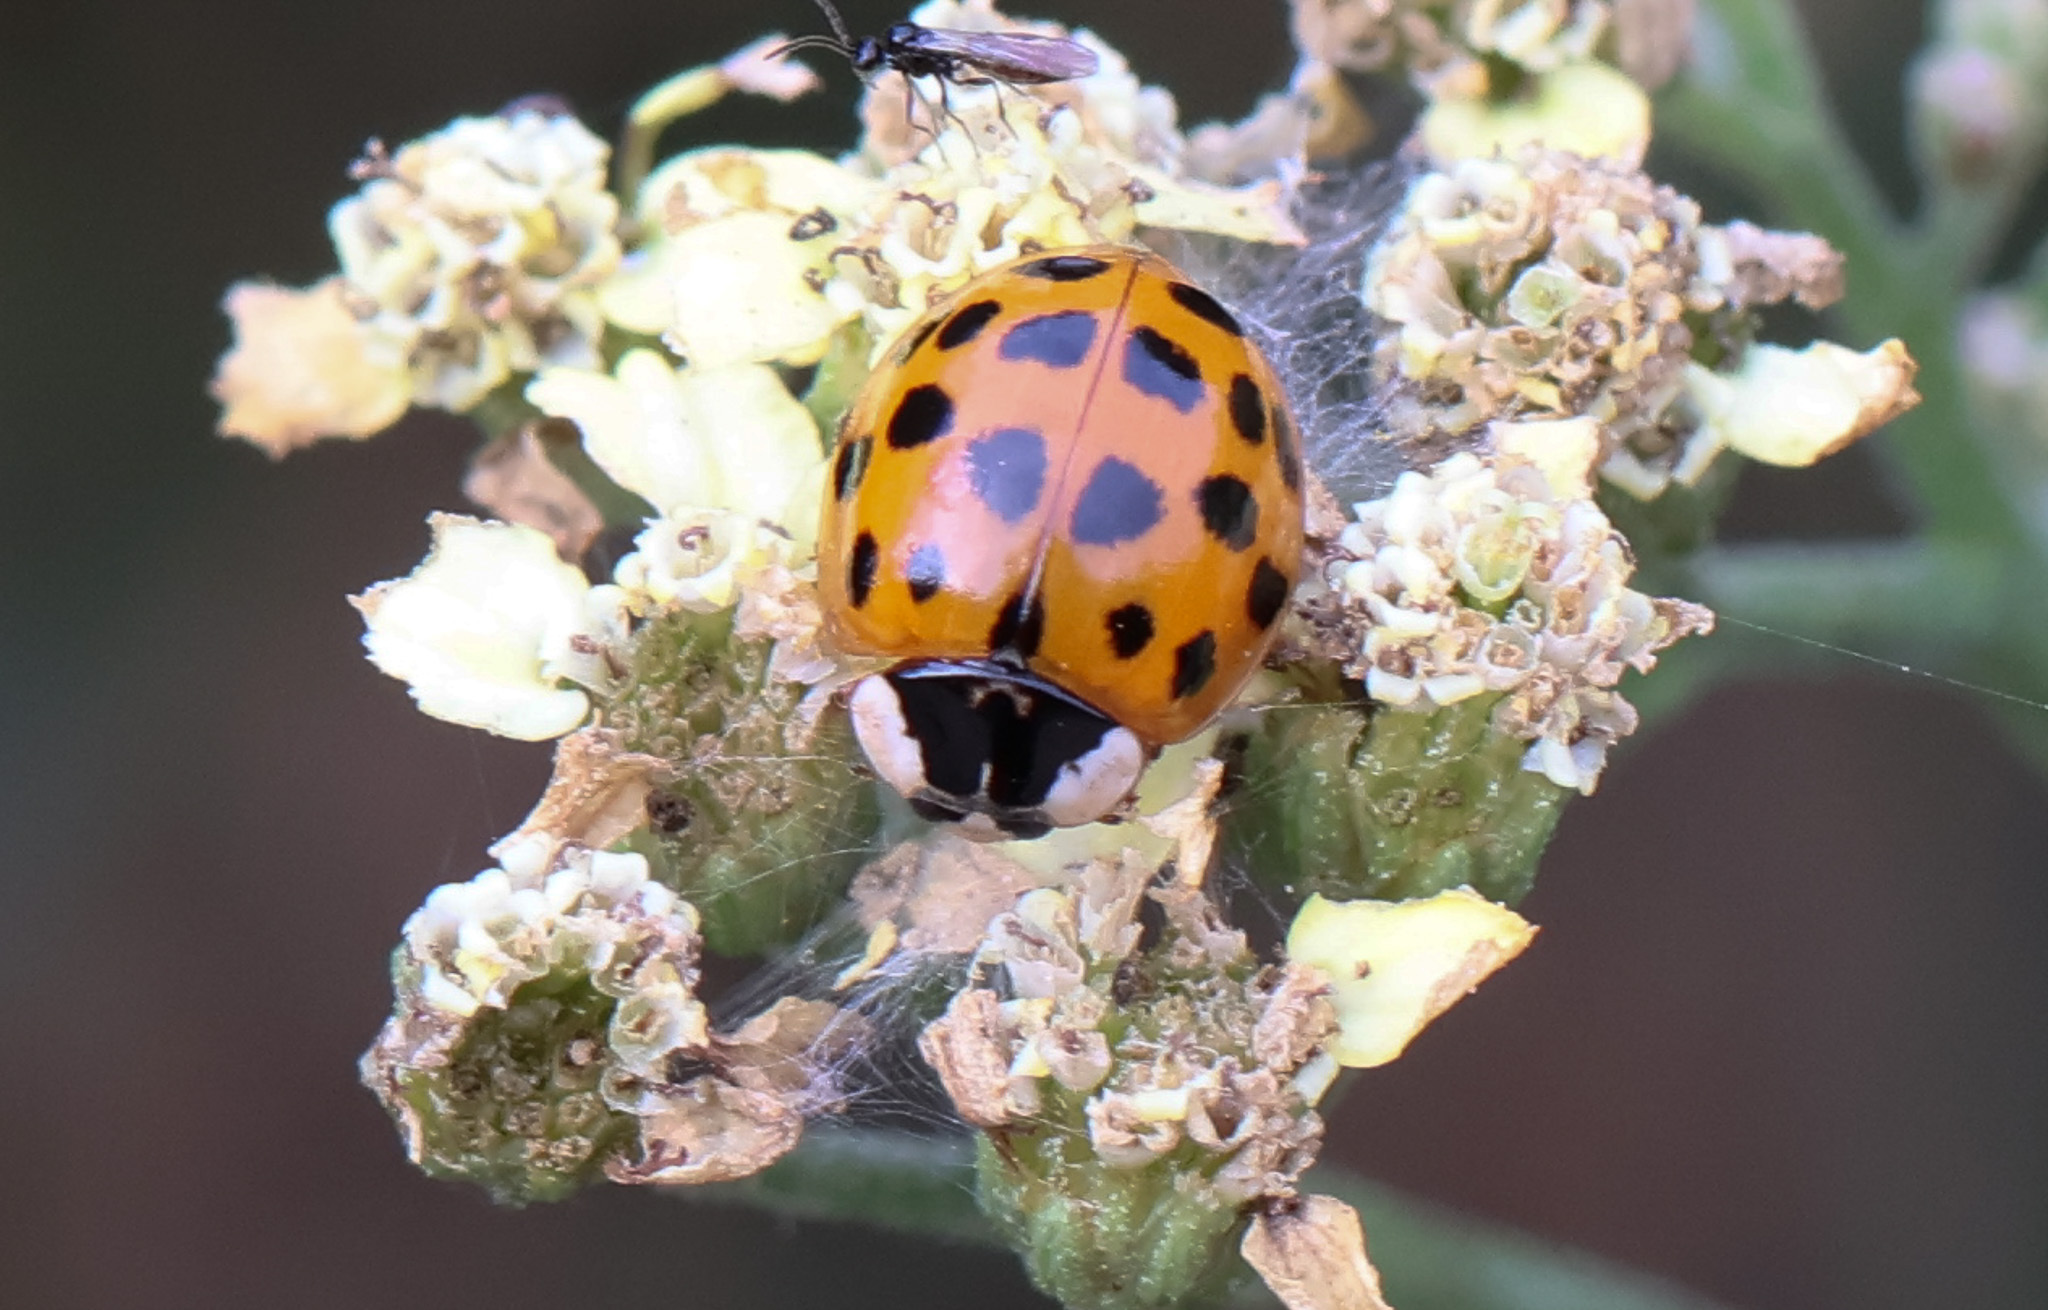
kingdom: Animalia
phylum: Arthropoda
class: Insecta
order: Coleoptera
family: Coccinellidae
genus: Harmonia
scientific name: Harmonia axyridis
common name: Harlequin ladybird
